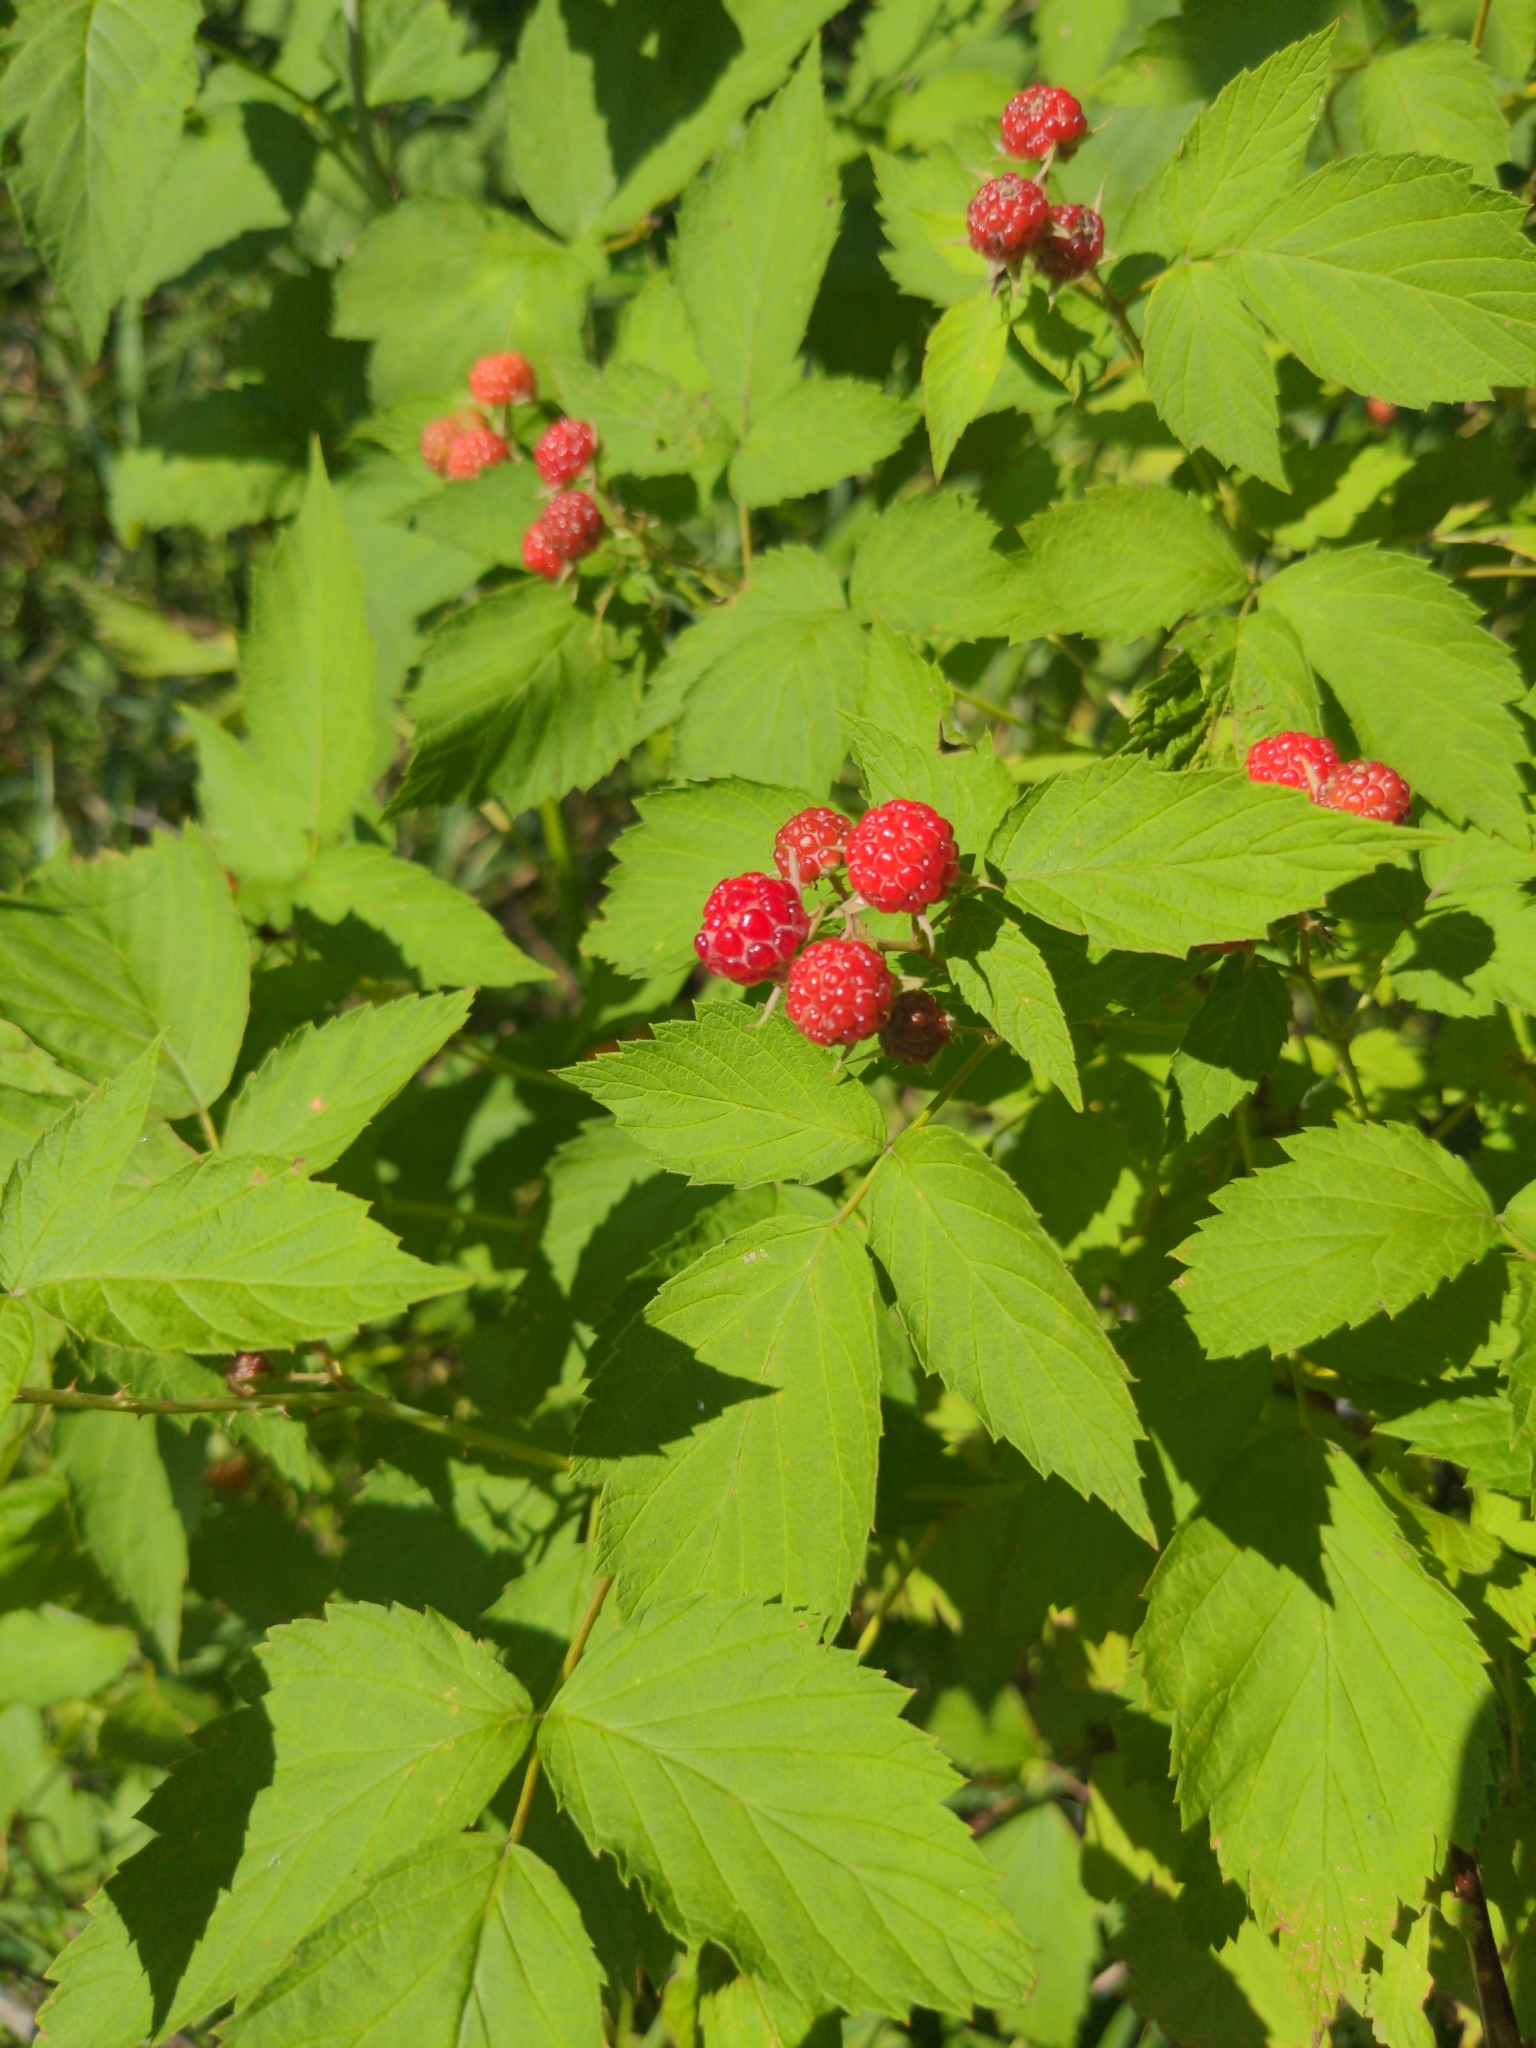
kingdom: Plantae
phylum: Tracheophyta
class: Magnoliopsida
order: Rosales
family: Rosaceae
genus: Rubus
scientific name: Rubus occidentalis
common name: Black raspberry
